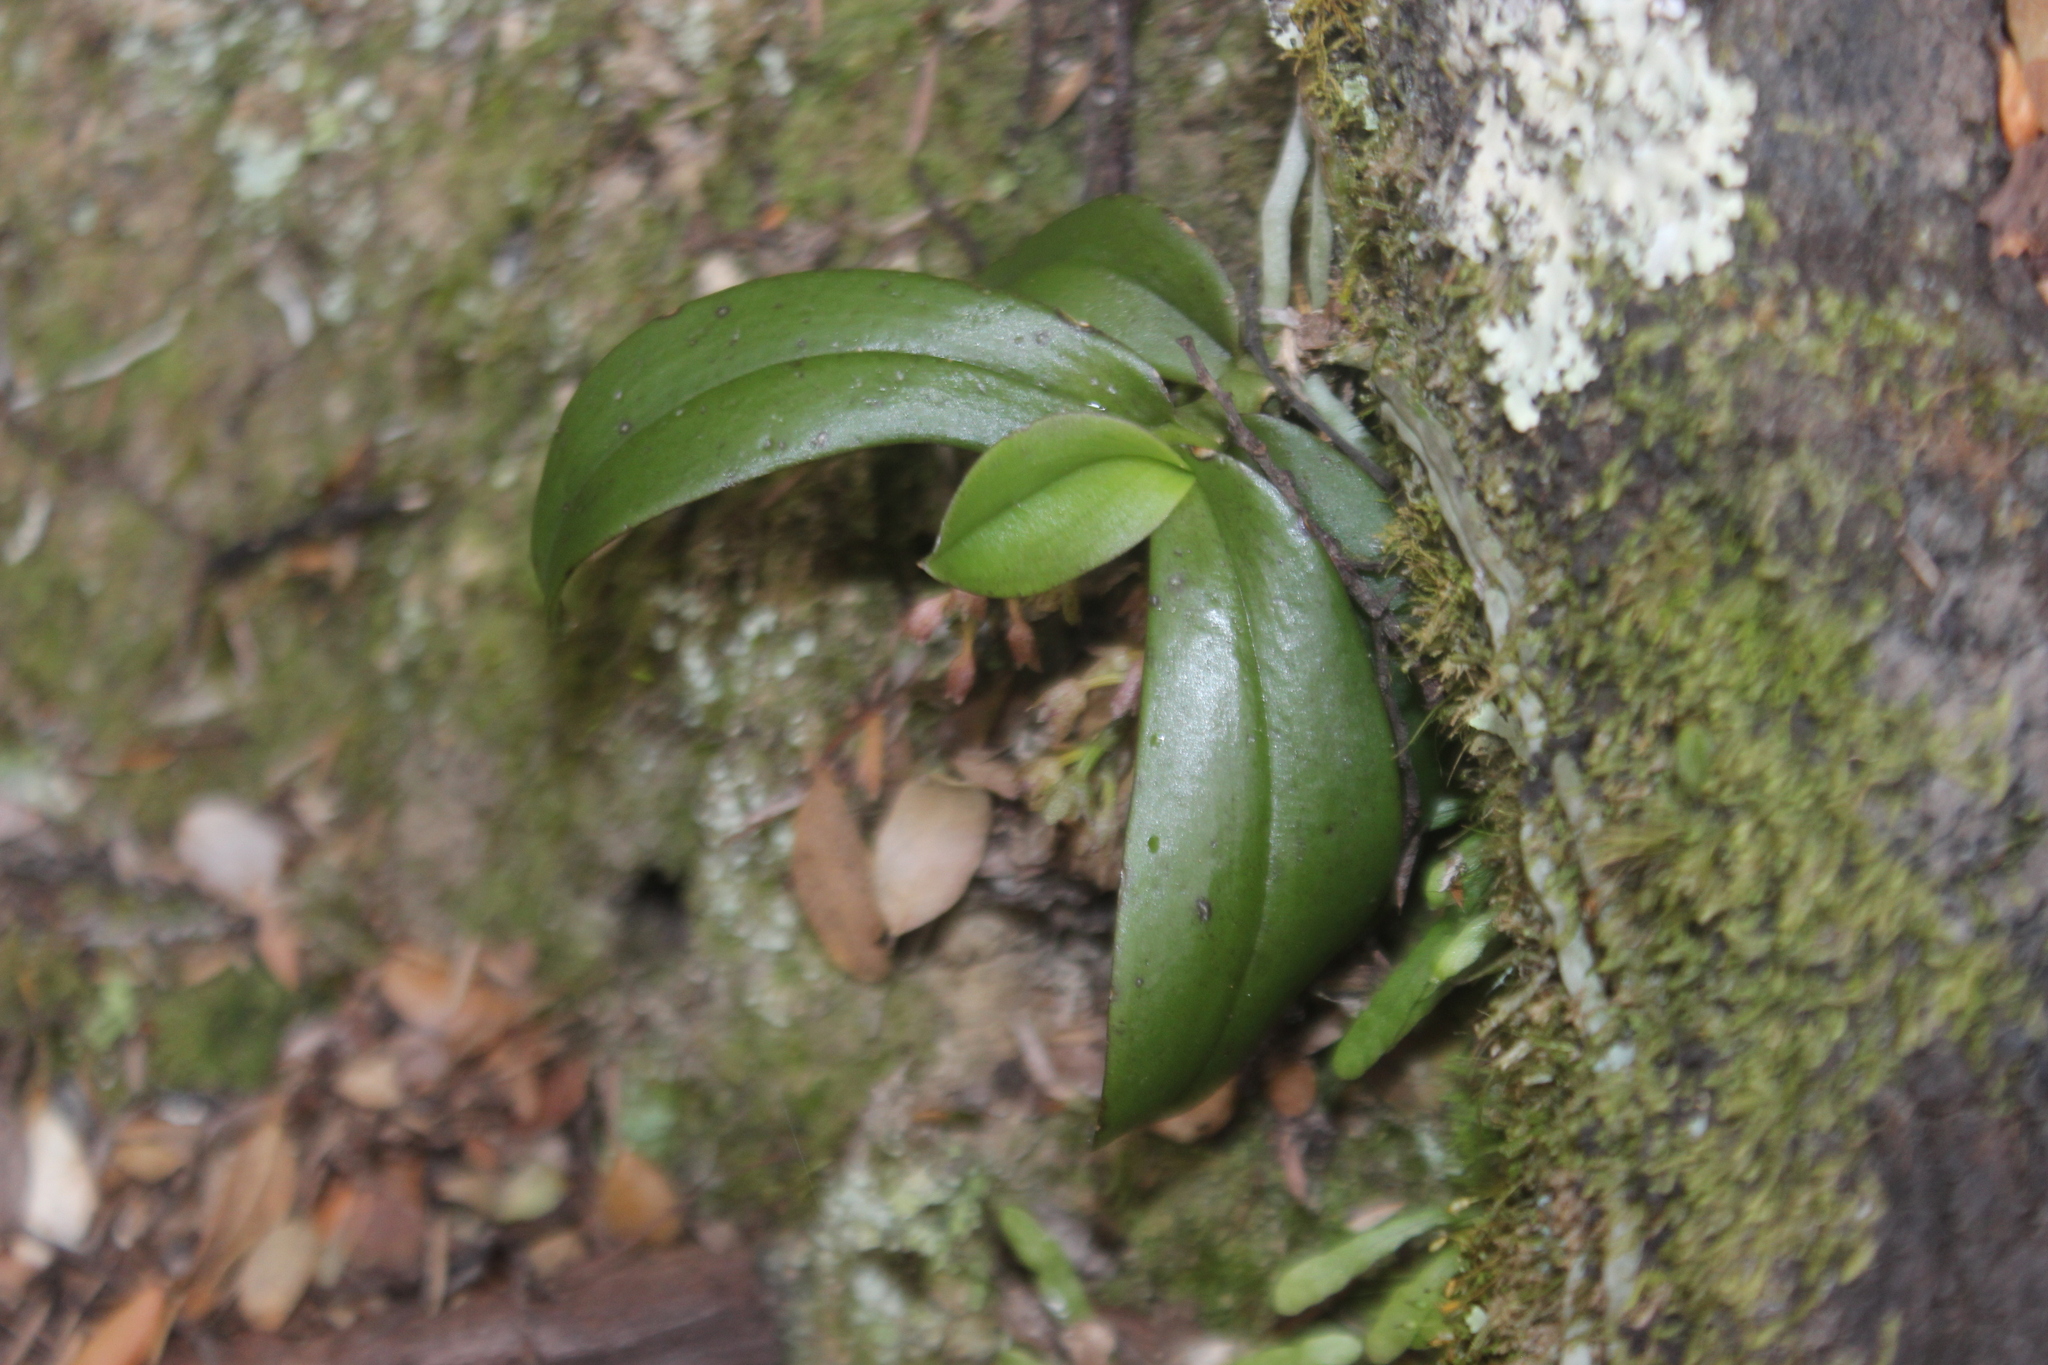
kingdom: Plantae
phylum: Tracheophyta
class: Liliopsida
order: Asparagales
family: Orchidaceae
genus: Drymoanthus
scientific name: Drymoanthus adversus
